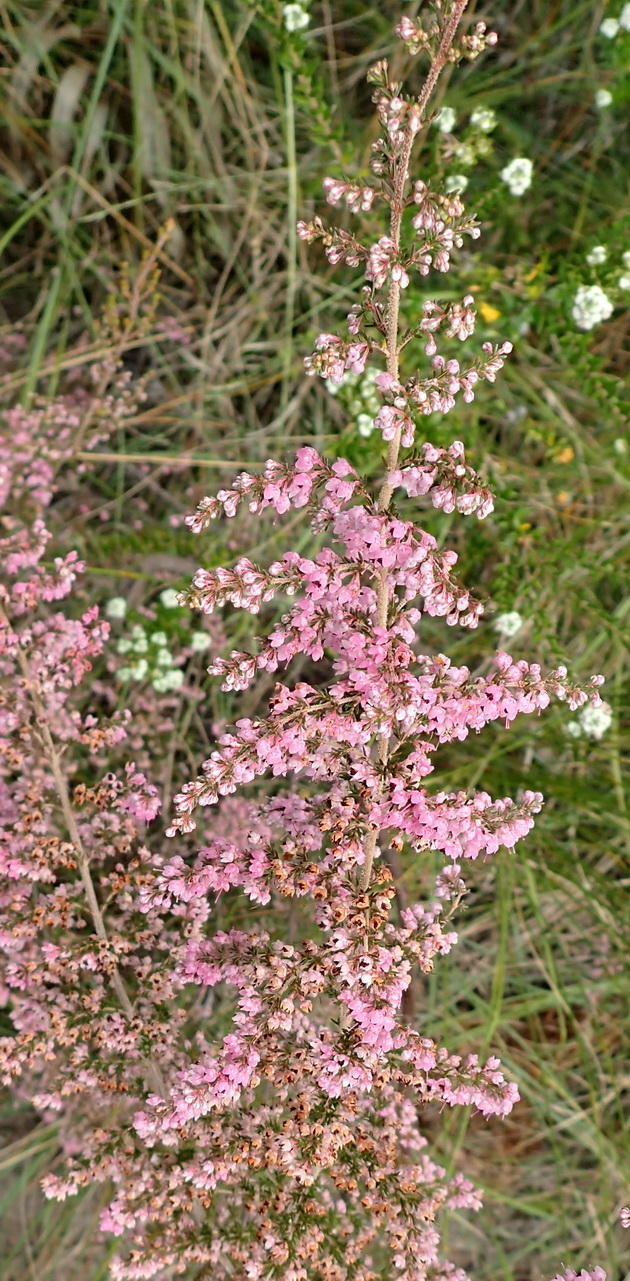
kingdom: Plantae
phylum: Tracheophyta
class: Magnoliopsida
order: Ericales
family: Ericaceae
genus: Erica
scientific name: Erica sparsa
